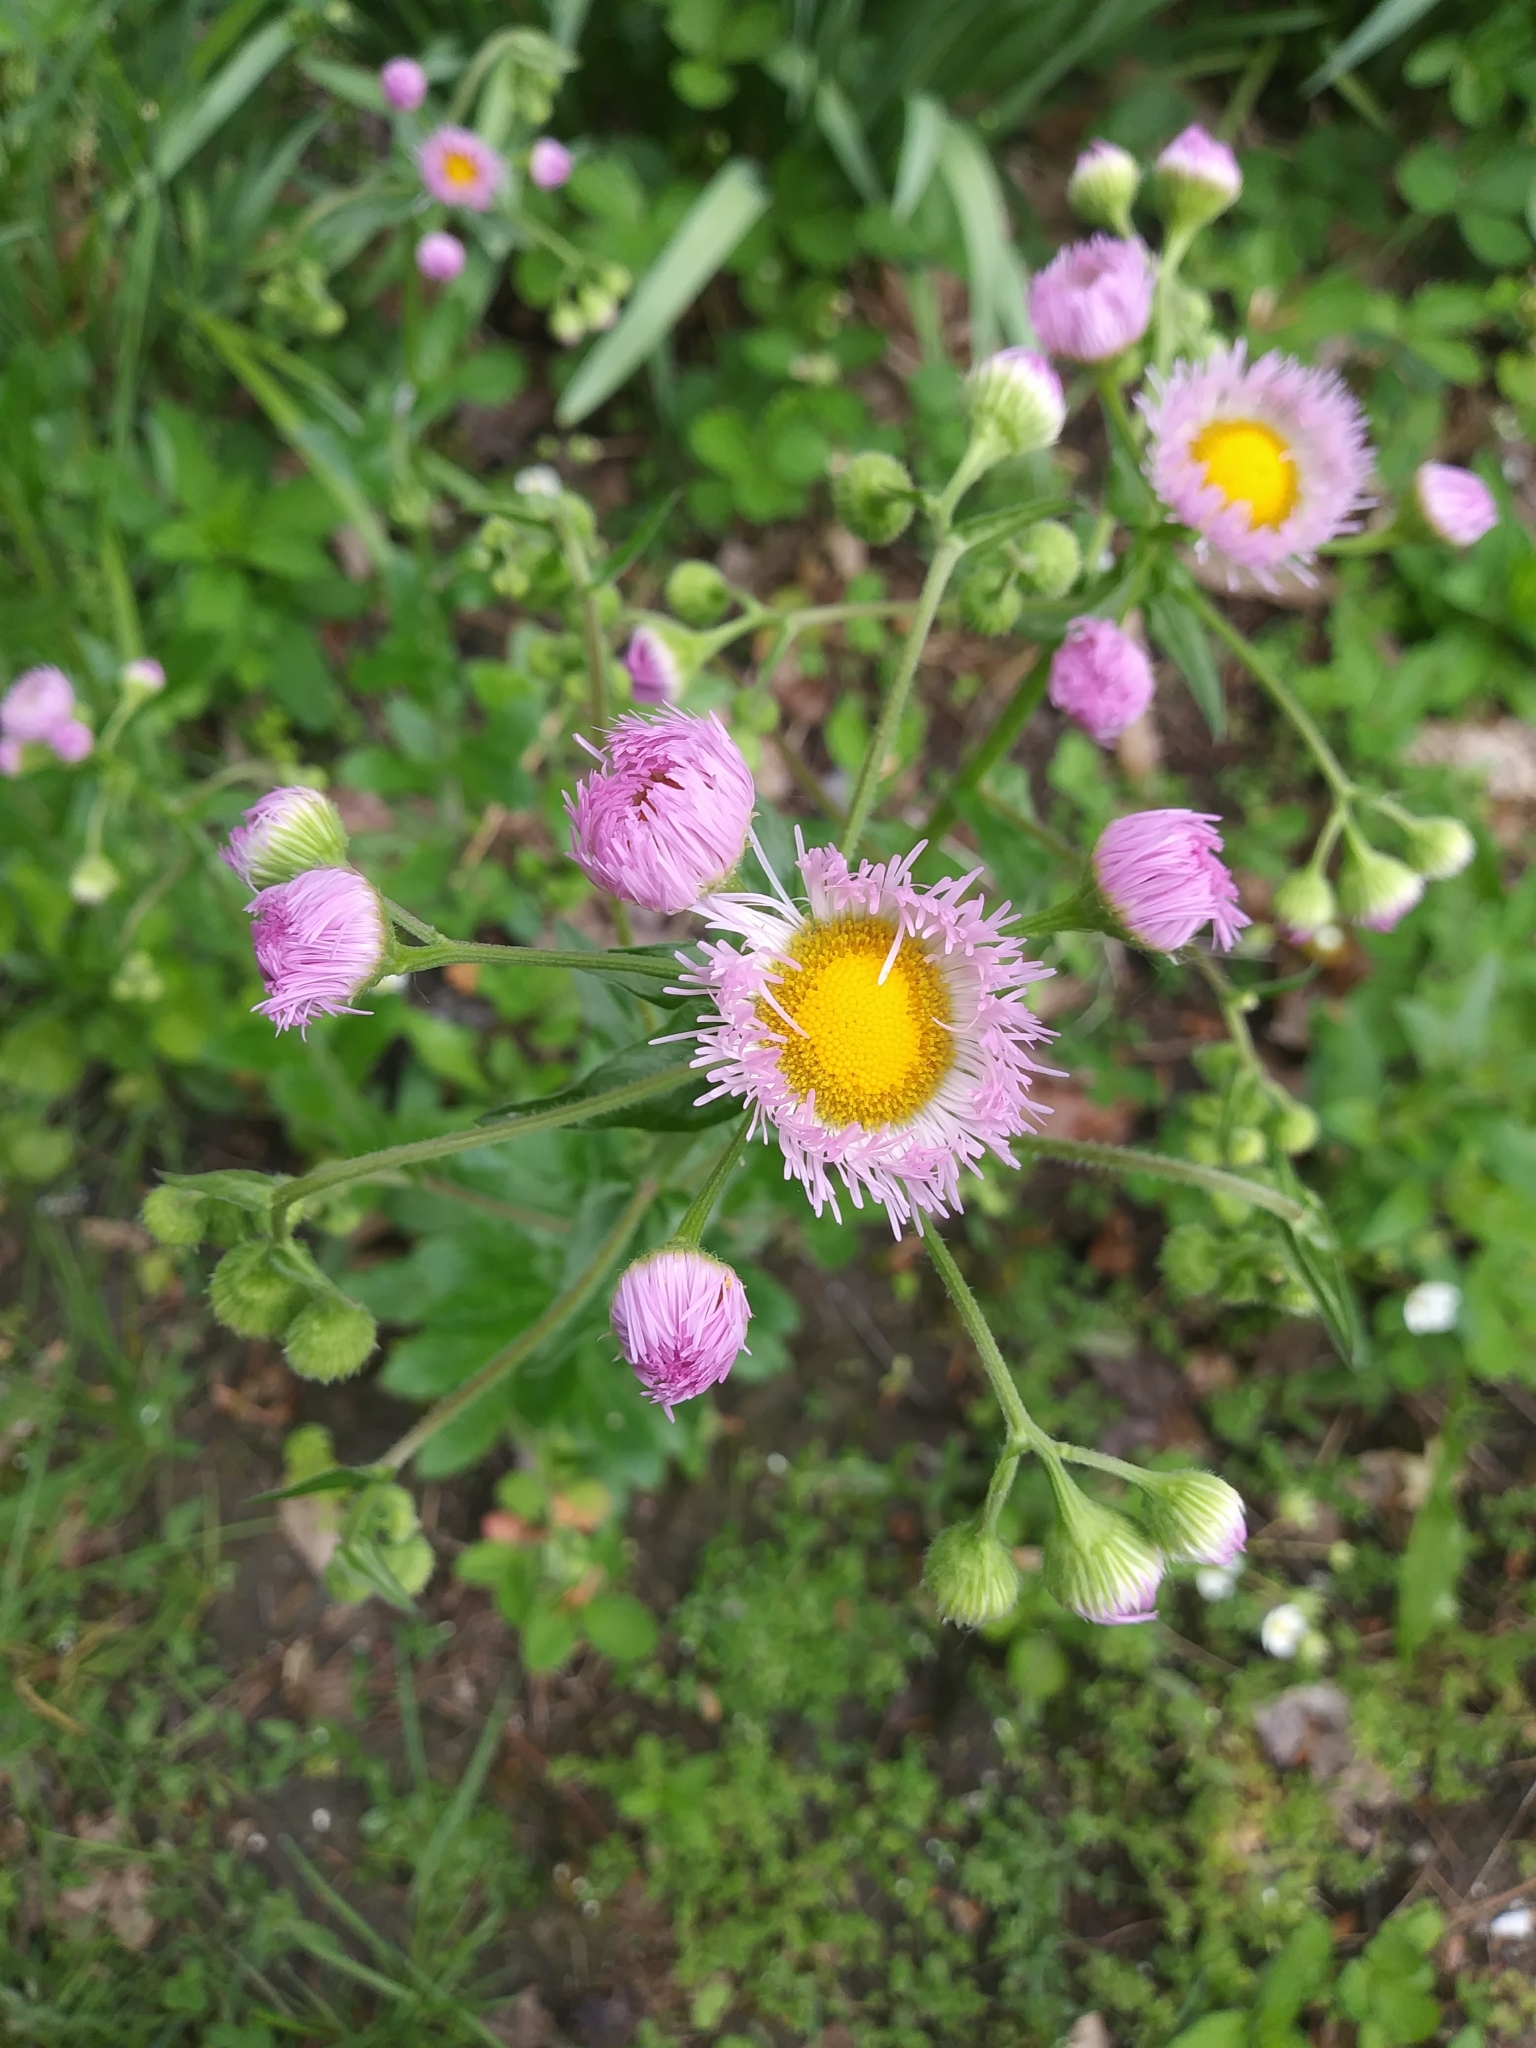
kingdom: Plantae
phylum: Tracheophyta
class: Magnoliopsida
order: Asterales
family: Asteraceae
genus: Erigeron
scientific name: Erigeron philadelphicus
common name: Robin's-plantain
